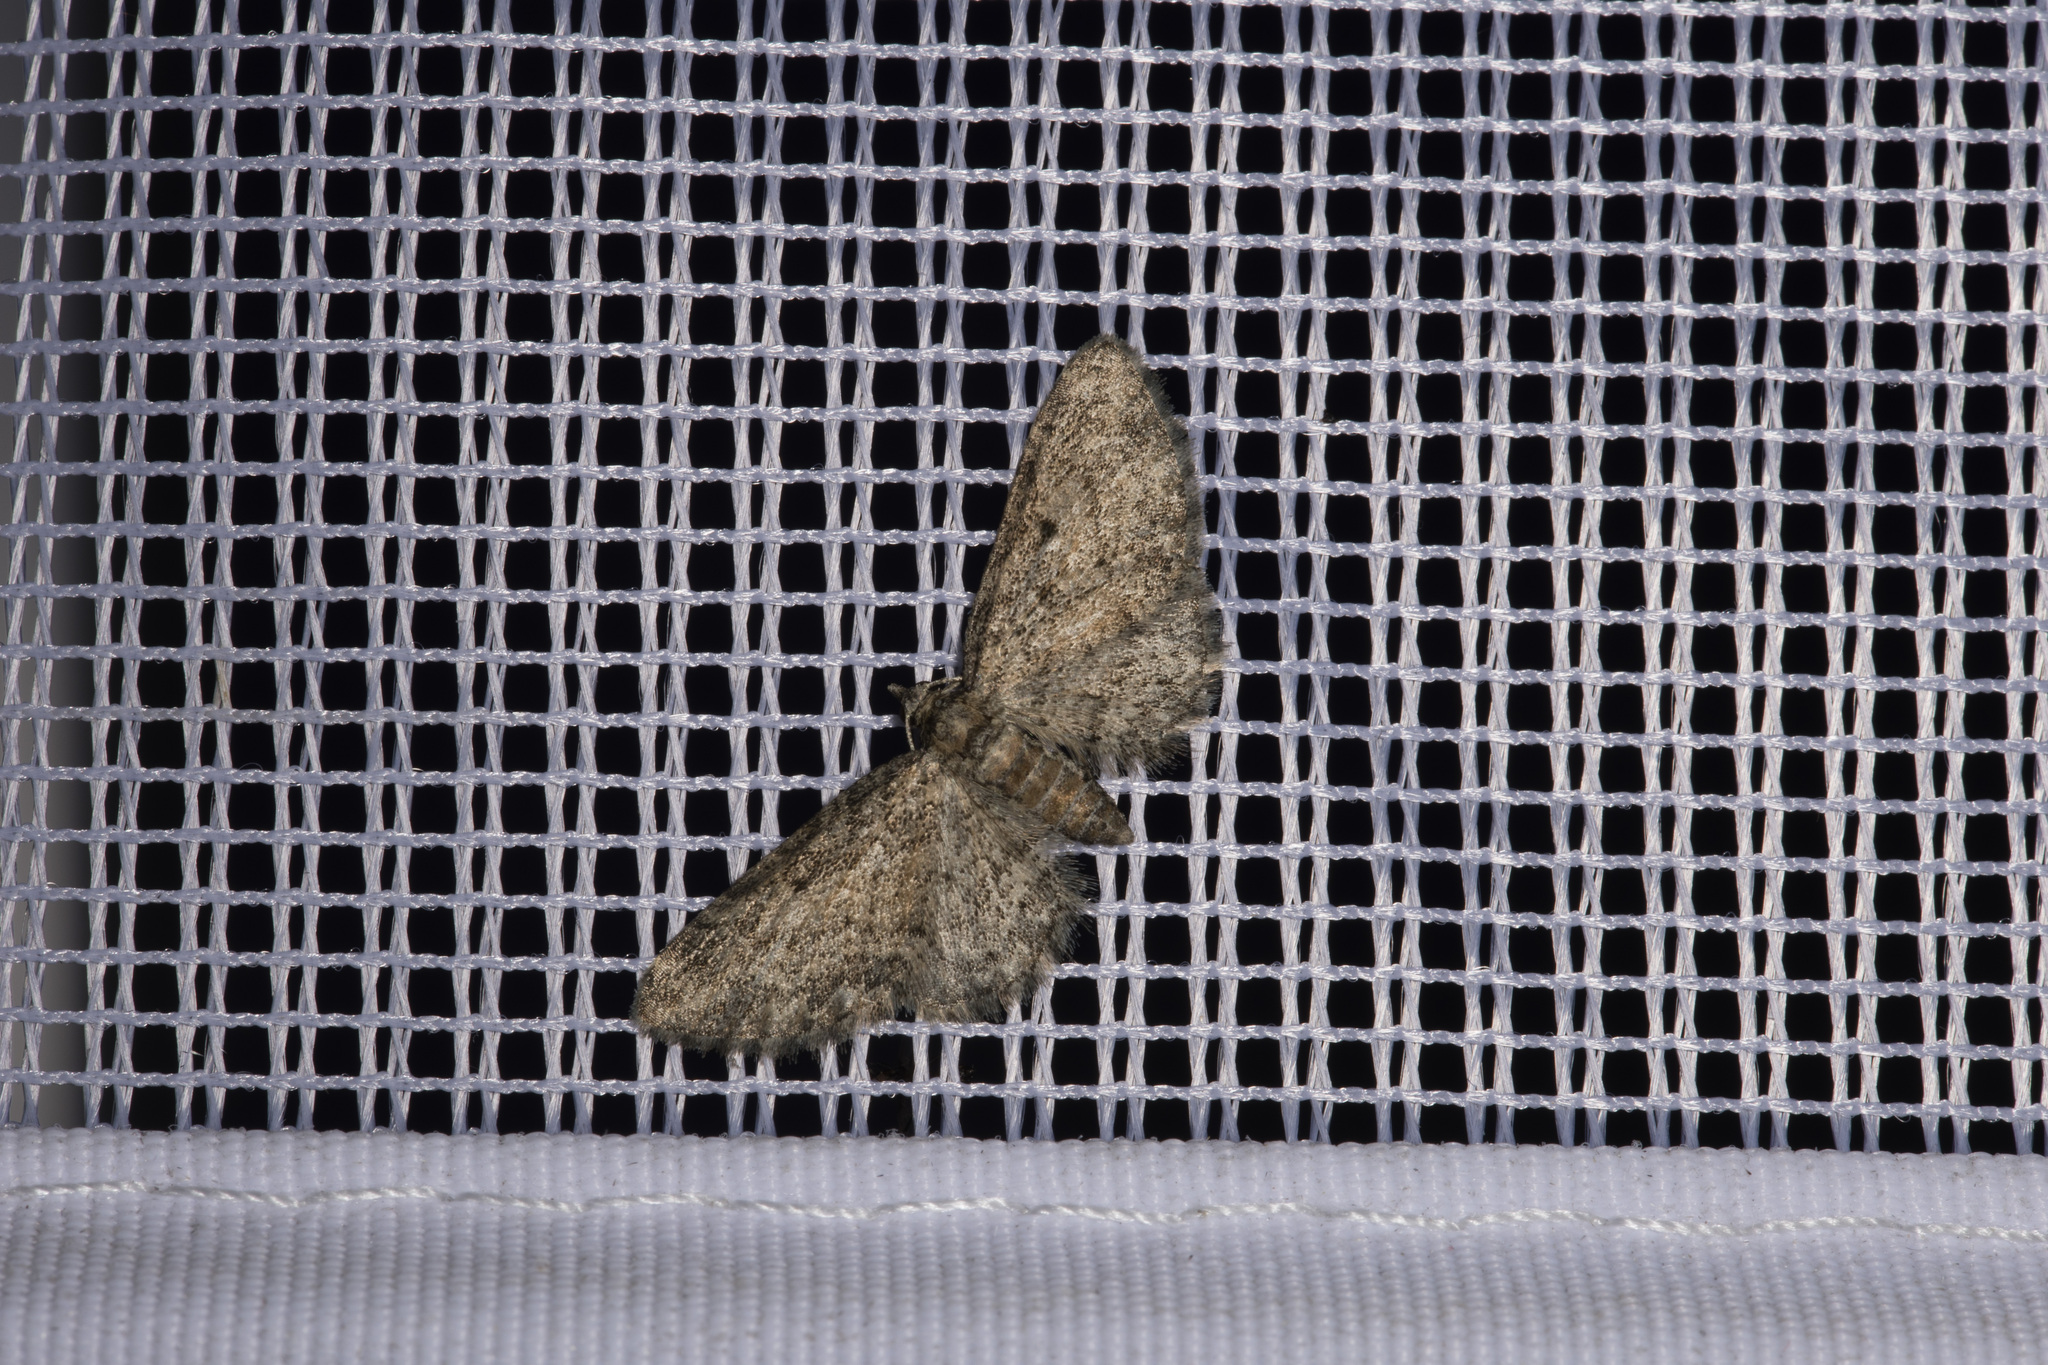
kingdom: Animalia
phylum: Arthropoda
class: Insecta
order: Lepidoptera
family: Geometridae
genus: Eupithecia
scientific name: Eupithecia inturbata
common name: Maple pug
